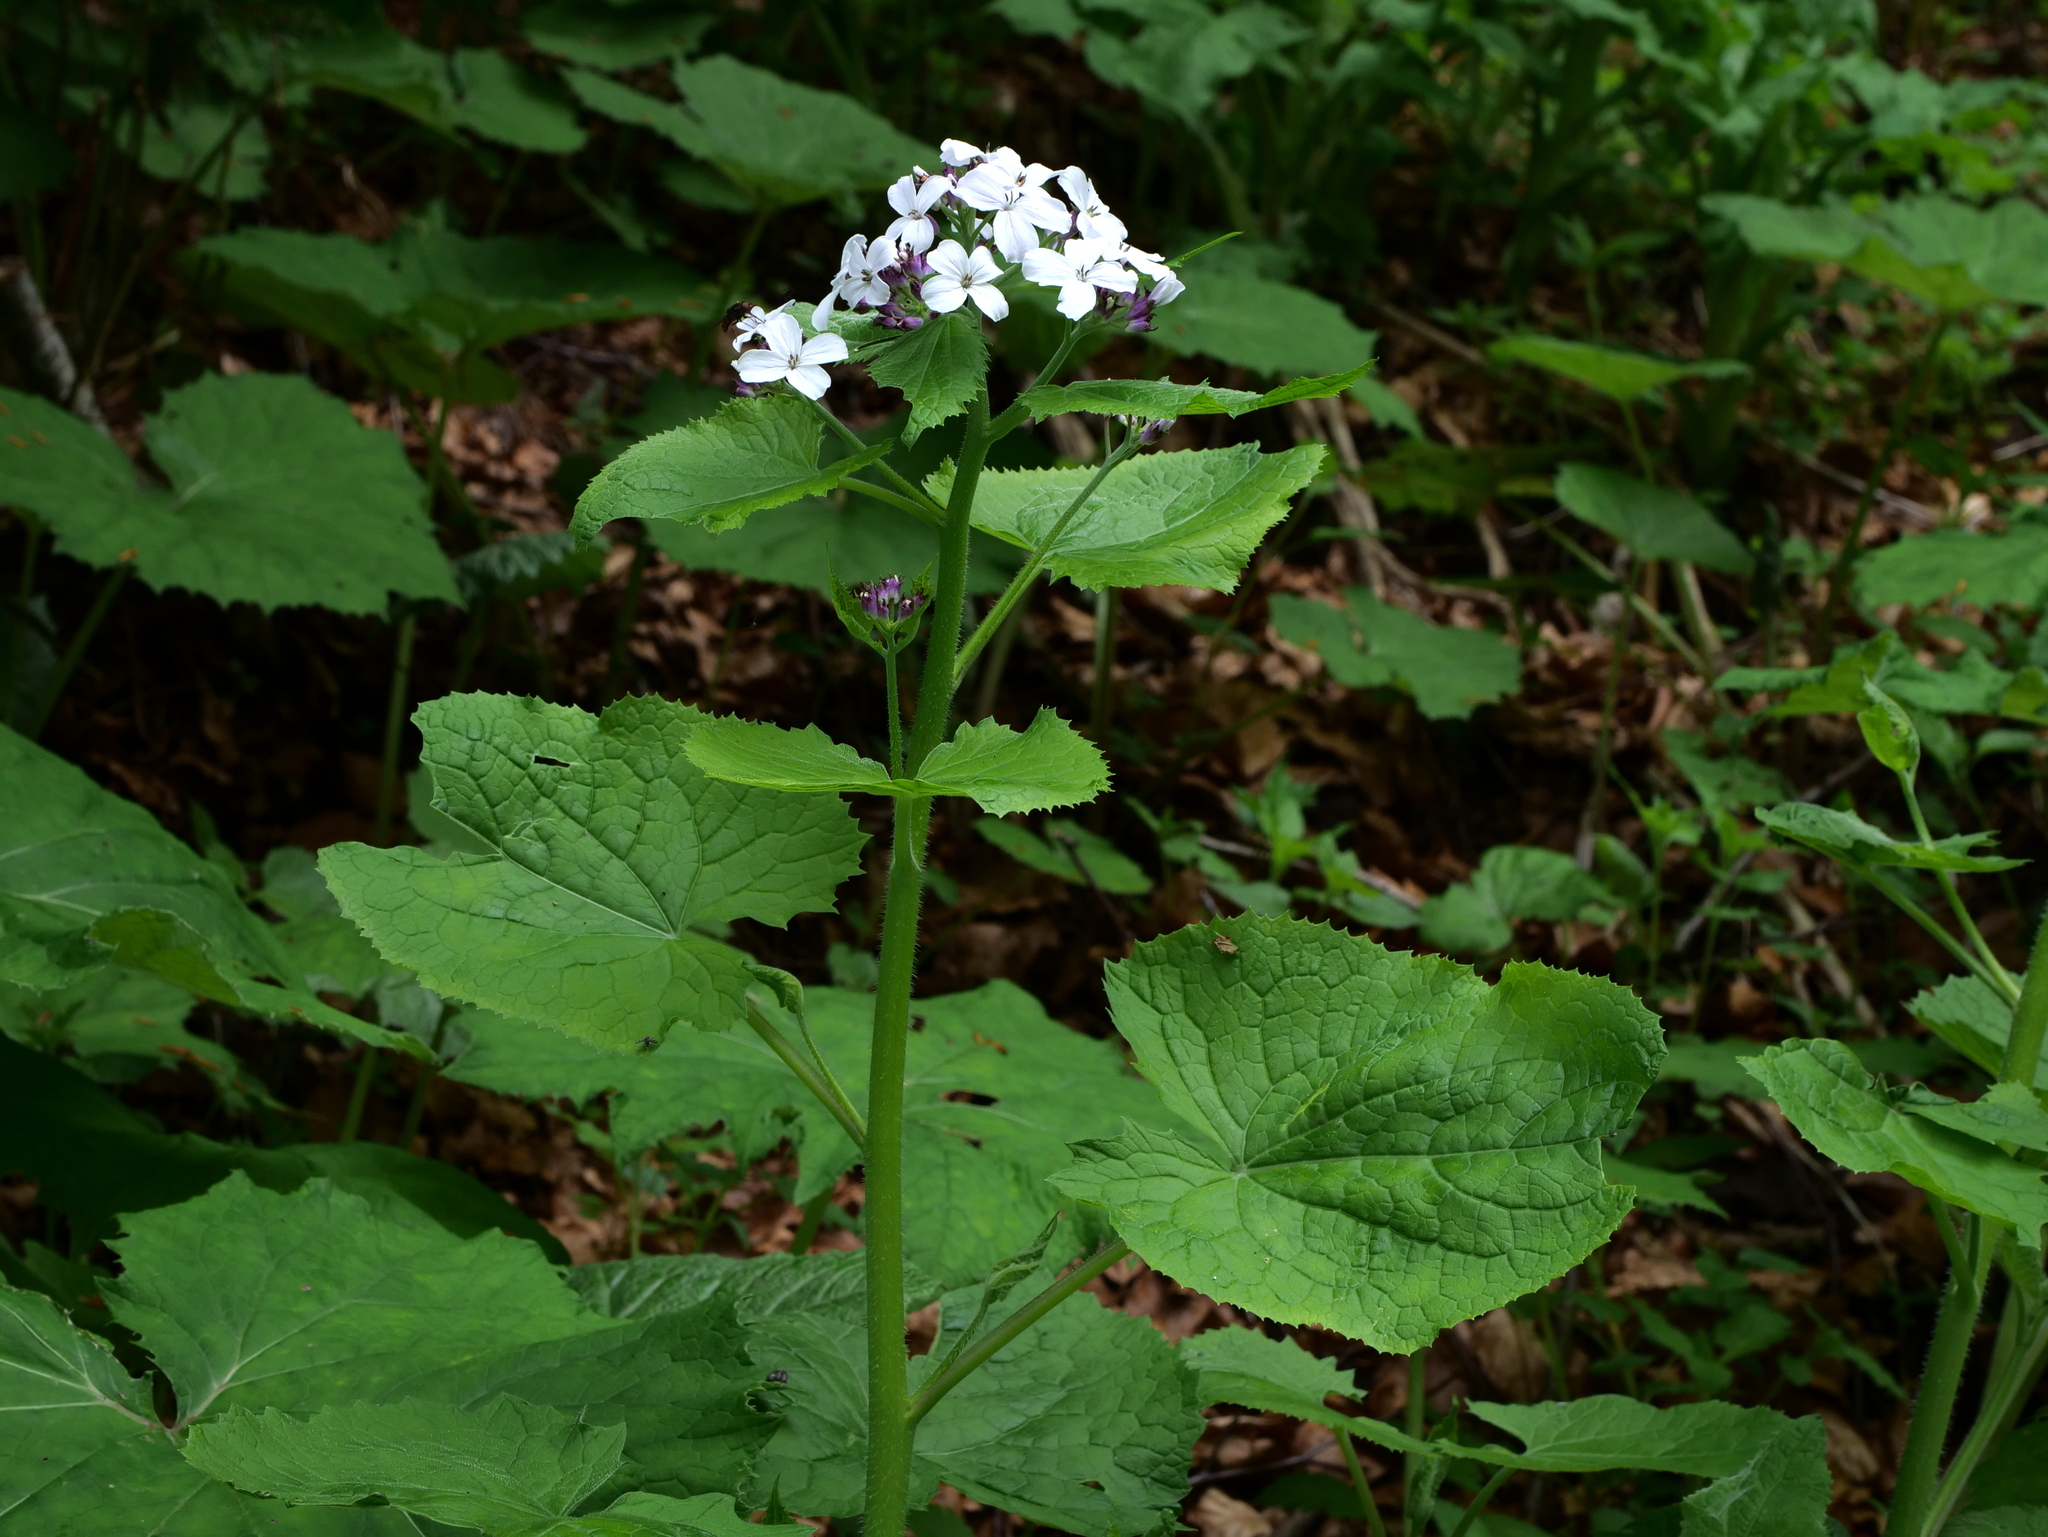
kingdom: Plantae
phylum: Tracheophyta
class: Magnoliopsida
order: Brassicales
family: Brassicaceae
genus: Lunaria
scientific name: Lunaria rediviva
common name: Perennial honesty
